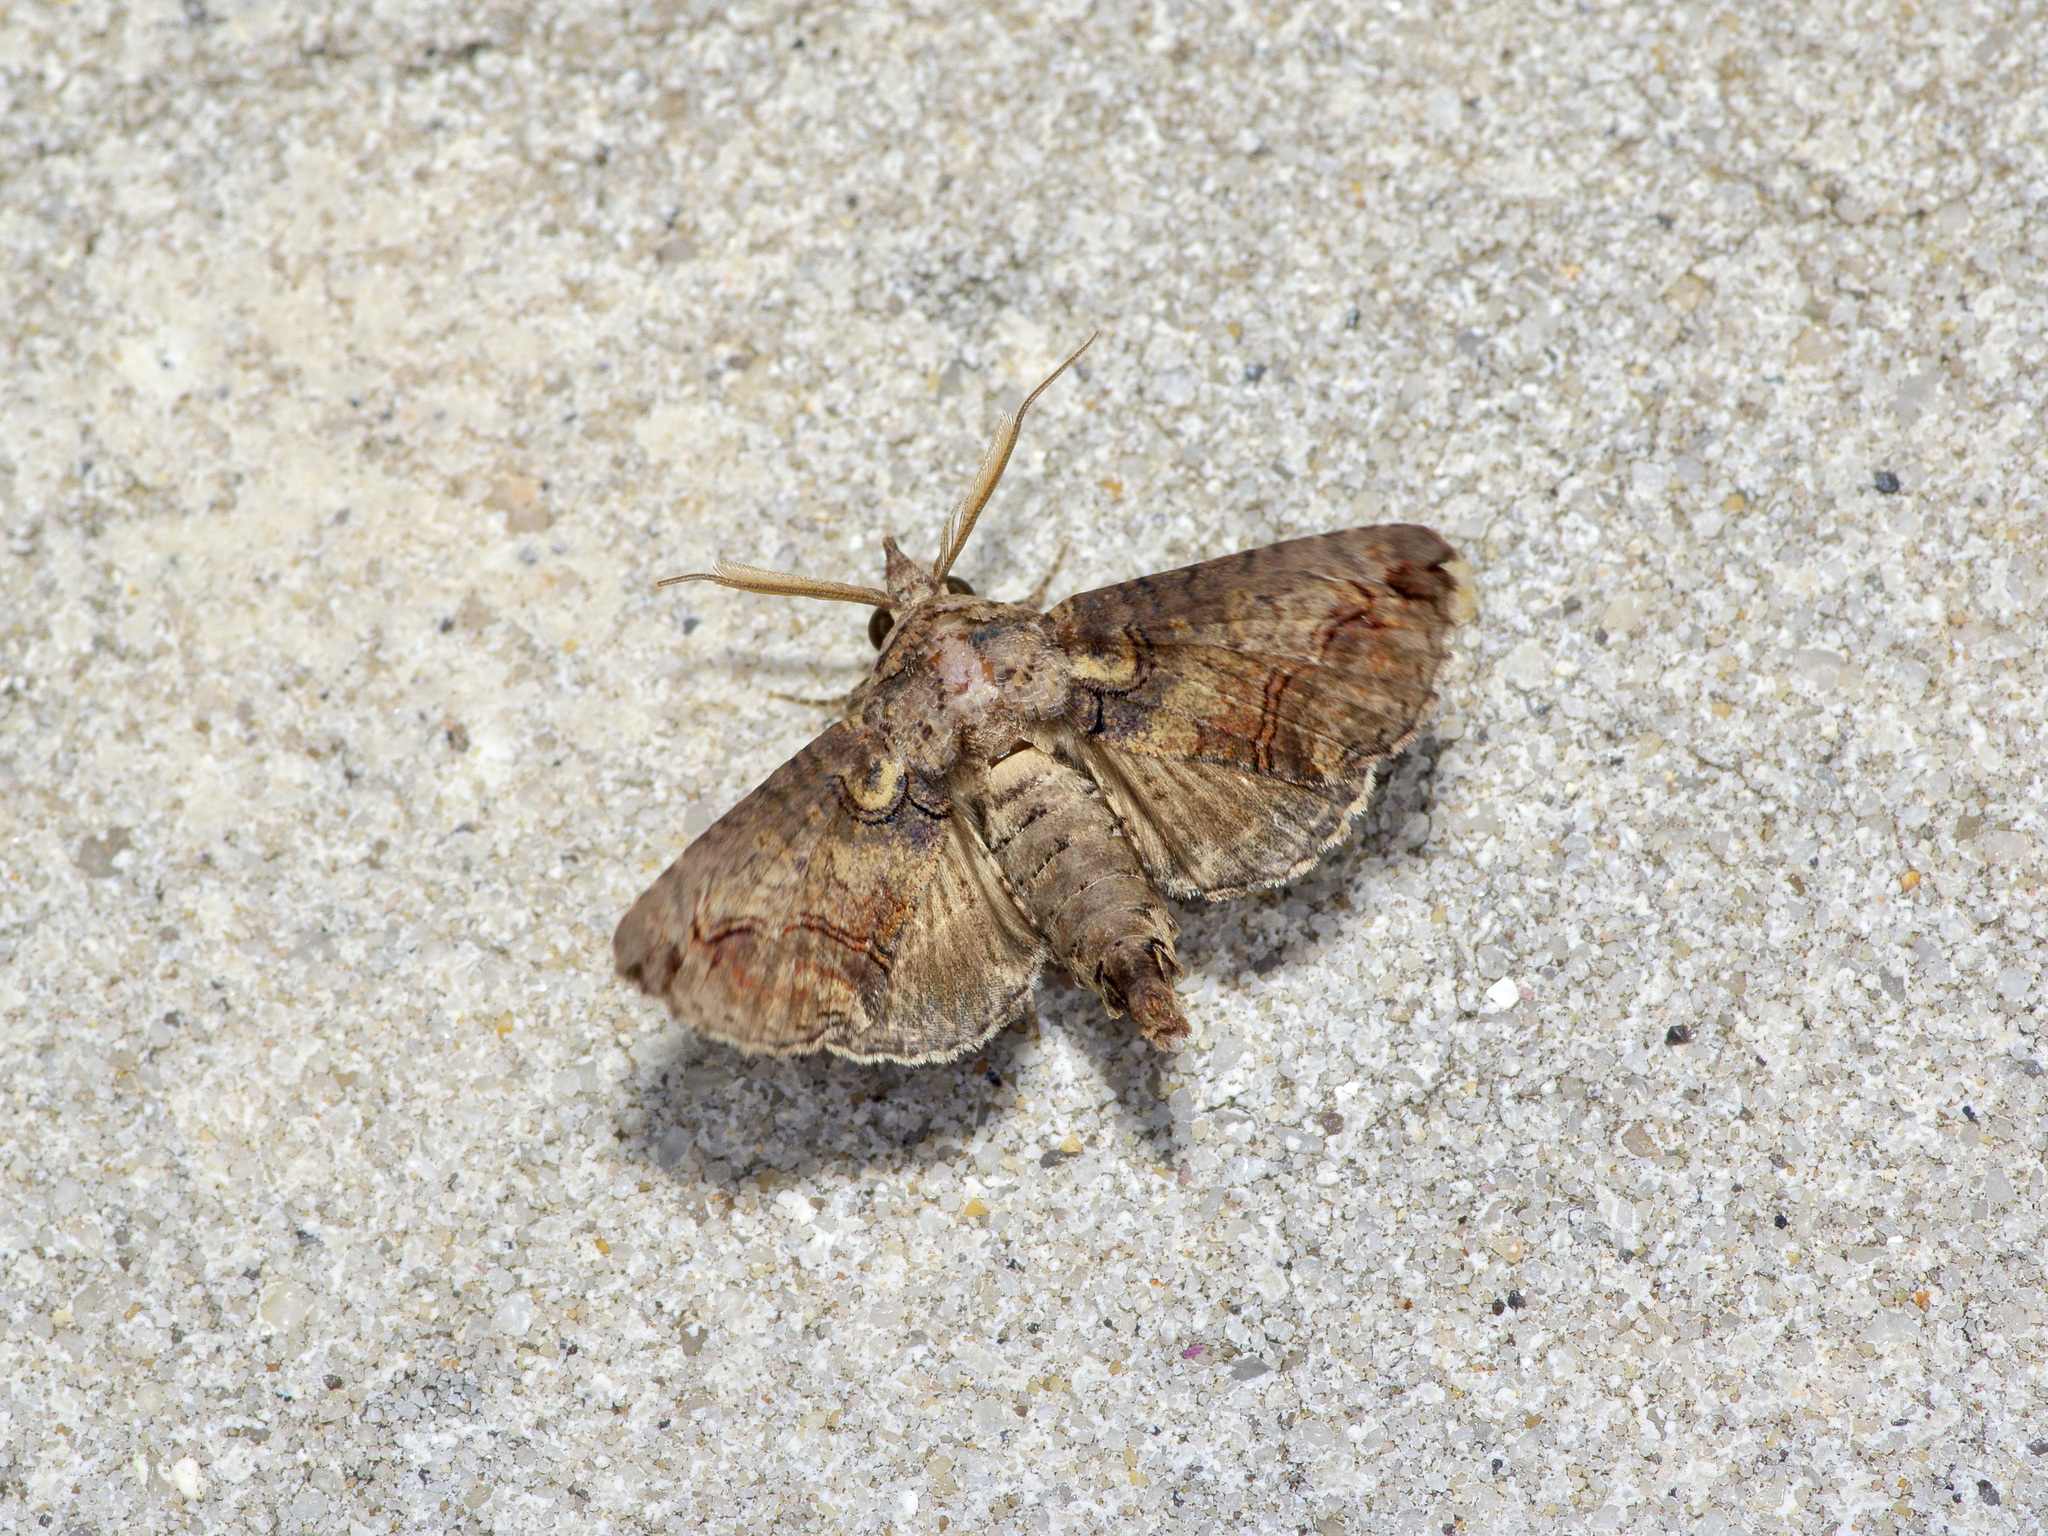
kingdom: Animalia
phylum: Arthropoda
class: Insecta
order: Lepidoptera
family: Euteliidae
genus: Paectes
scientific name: Paectes abrostoloides
